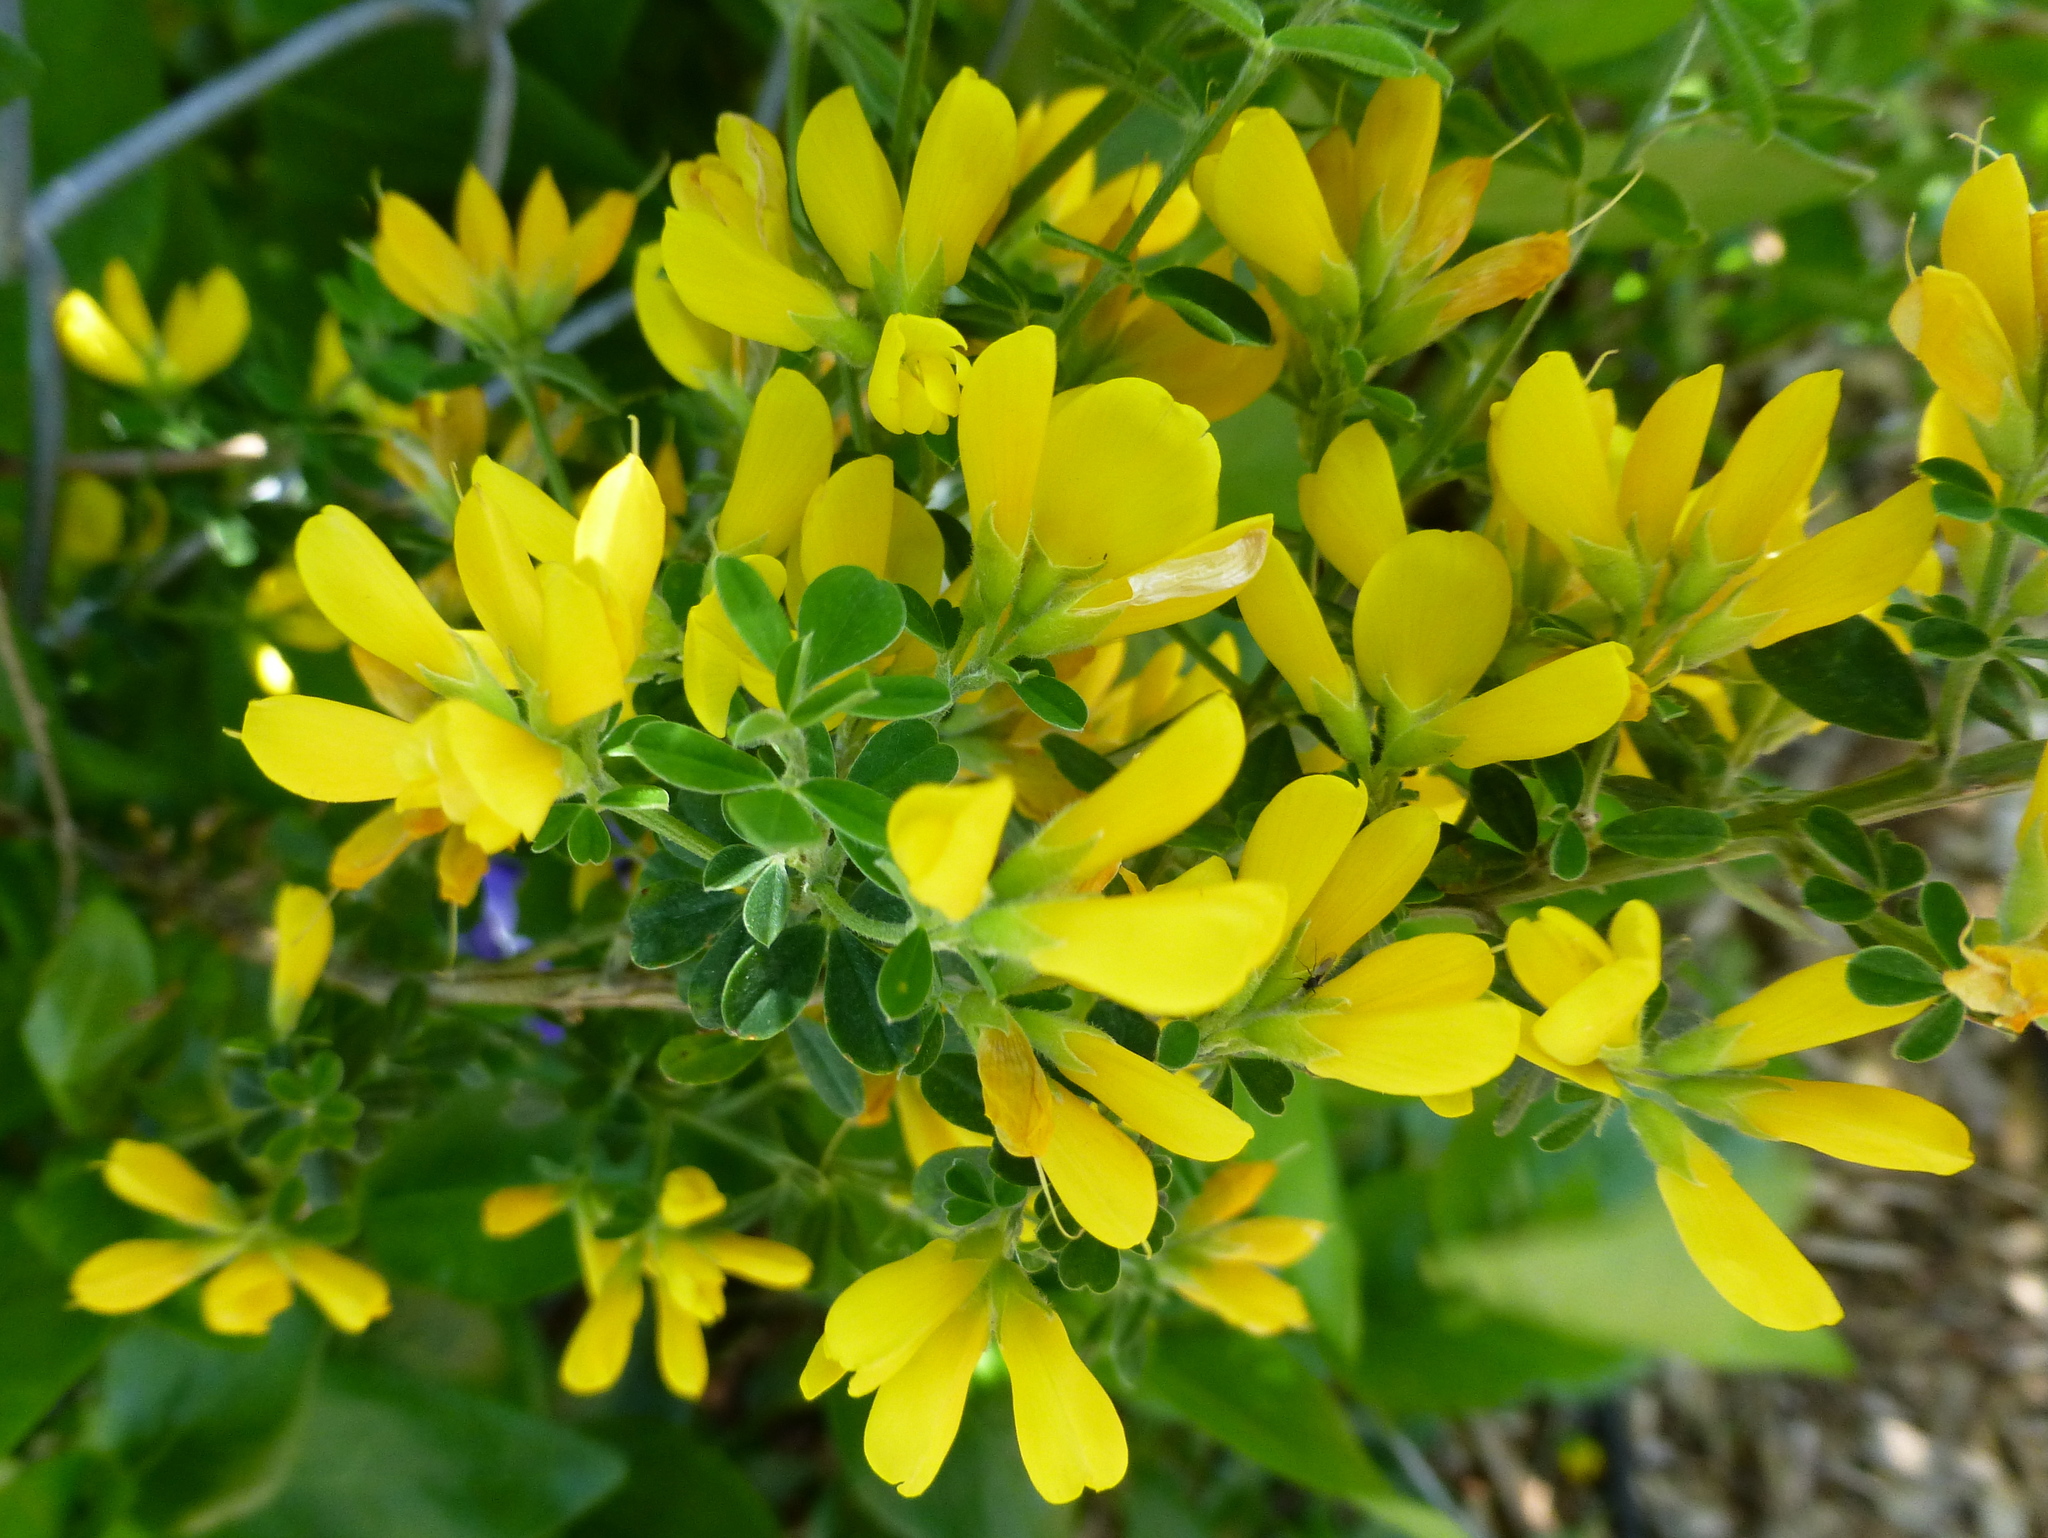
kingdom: Plantae
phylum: Tracheophyta
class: Magnoliopsida
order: Fabales
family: Fabaceae
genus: Genista
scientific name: Genista monspessulana
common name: Montpellier broom
